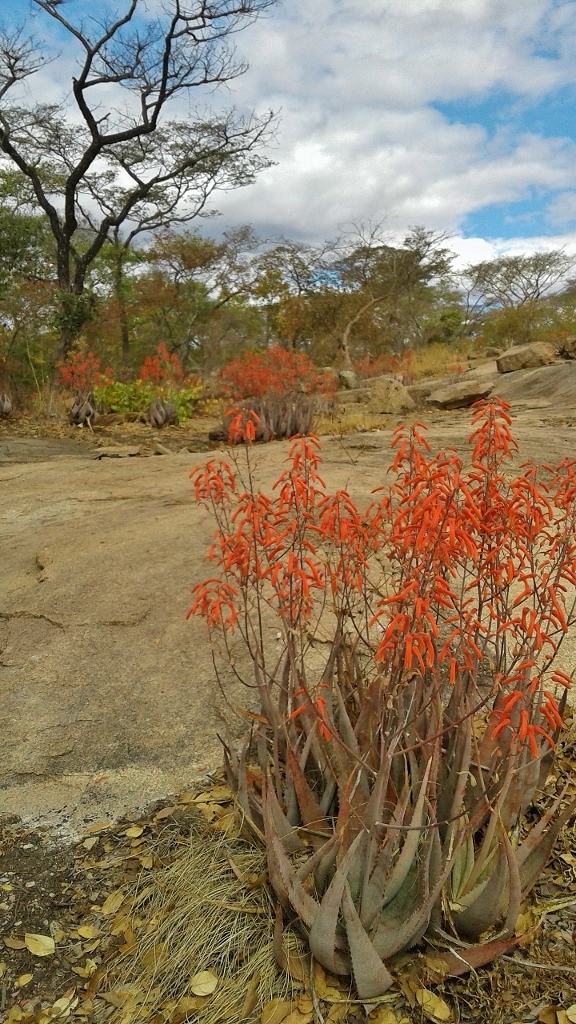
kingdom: Plantae
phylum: Tracheophyta
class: Liliopsida
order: Asparagales
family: Asphodelaceae
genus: Aloe
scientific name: Aloe chabaudii
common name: Chabaud's aloe
